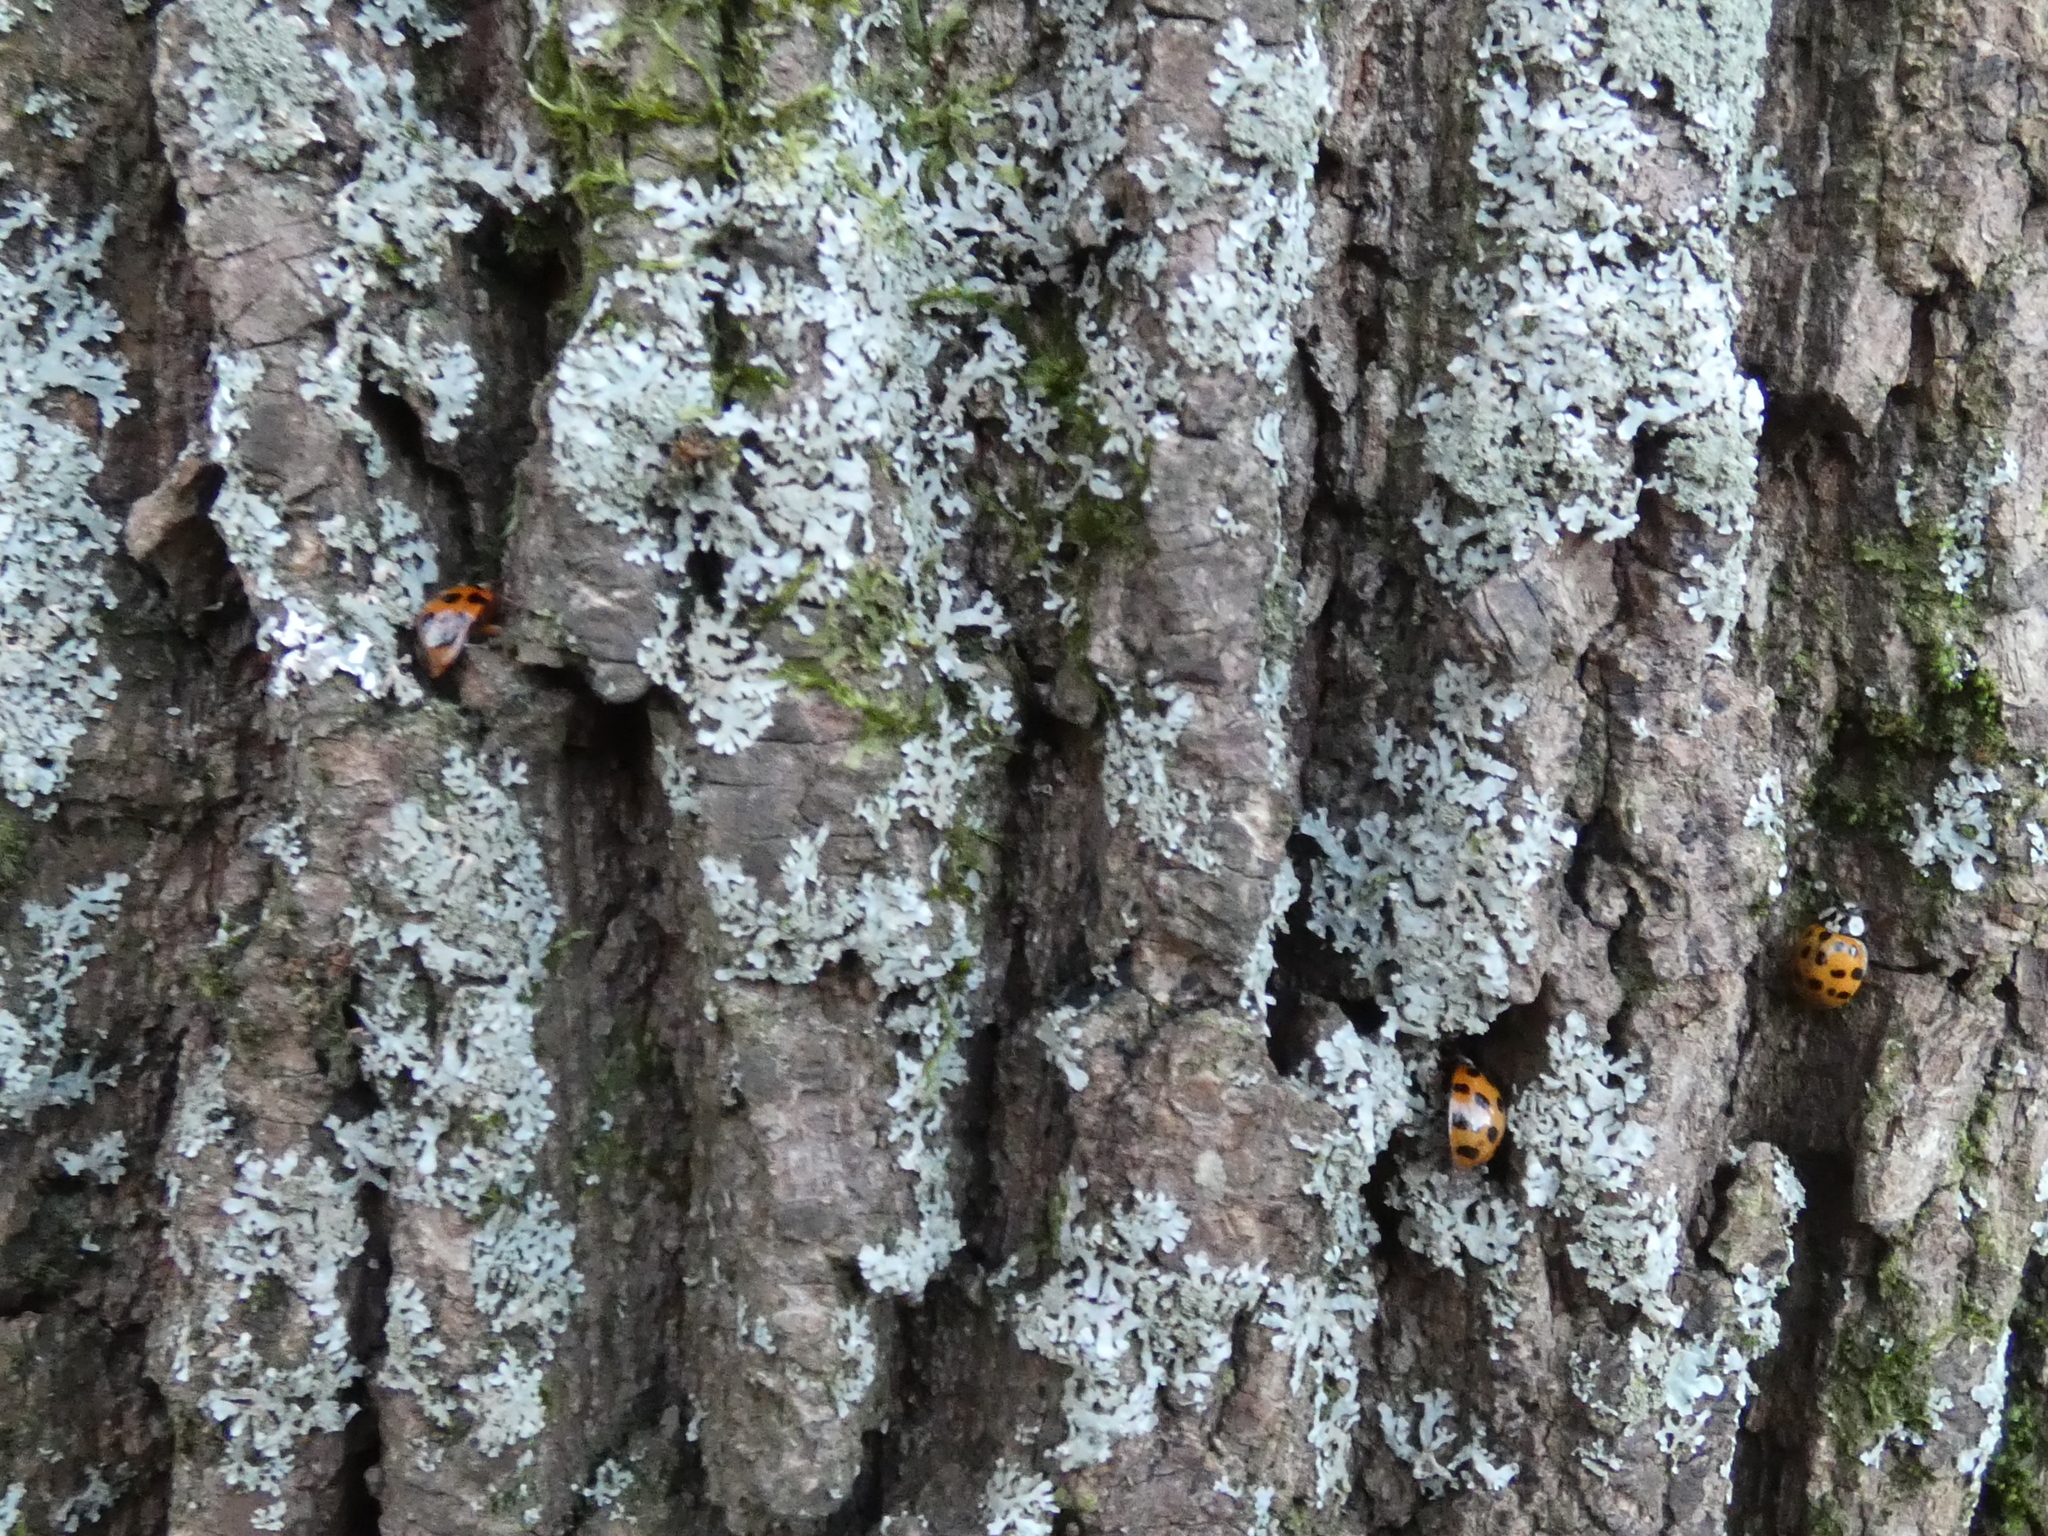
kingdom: Animalia
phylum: Arthropoda
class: Insecta
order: Coleoptera
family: Coccinellidae
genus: Harmonia
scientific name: Harmonia axyridis
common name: Harlequin ladybird
